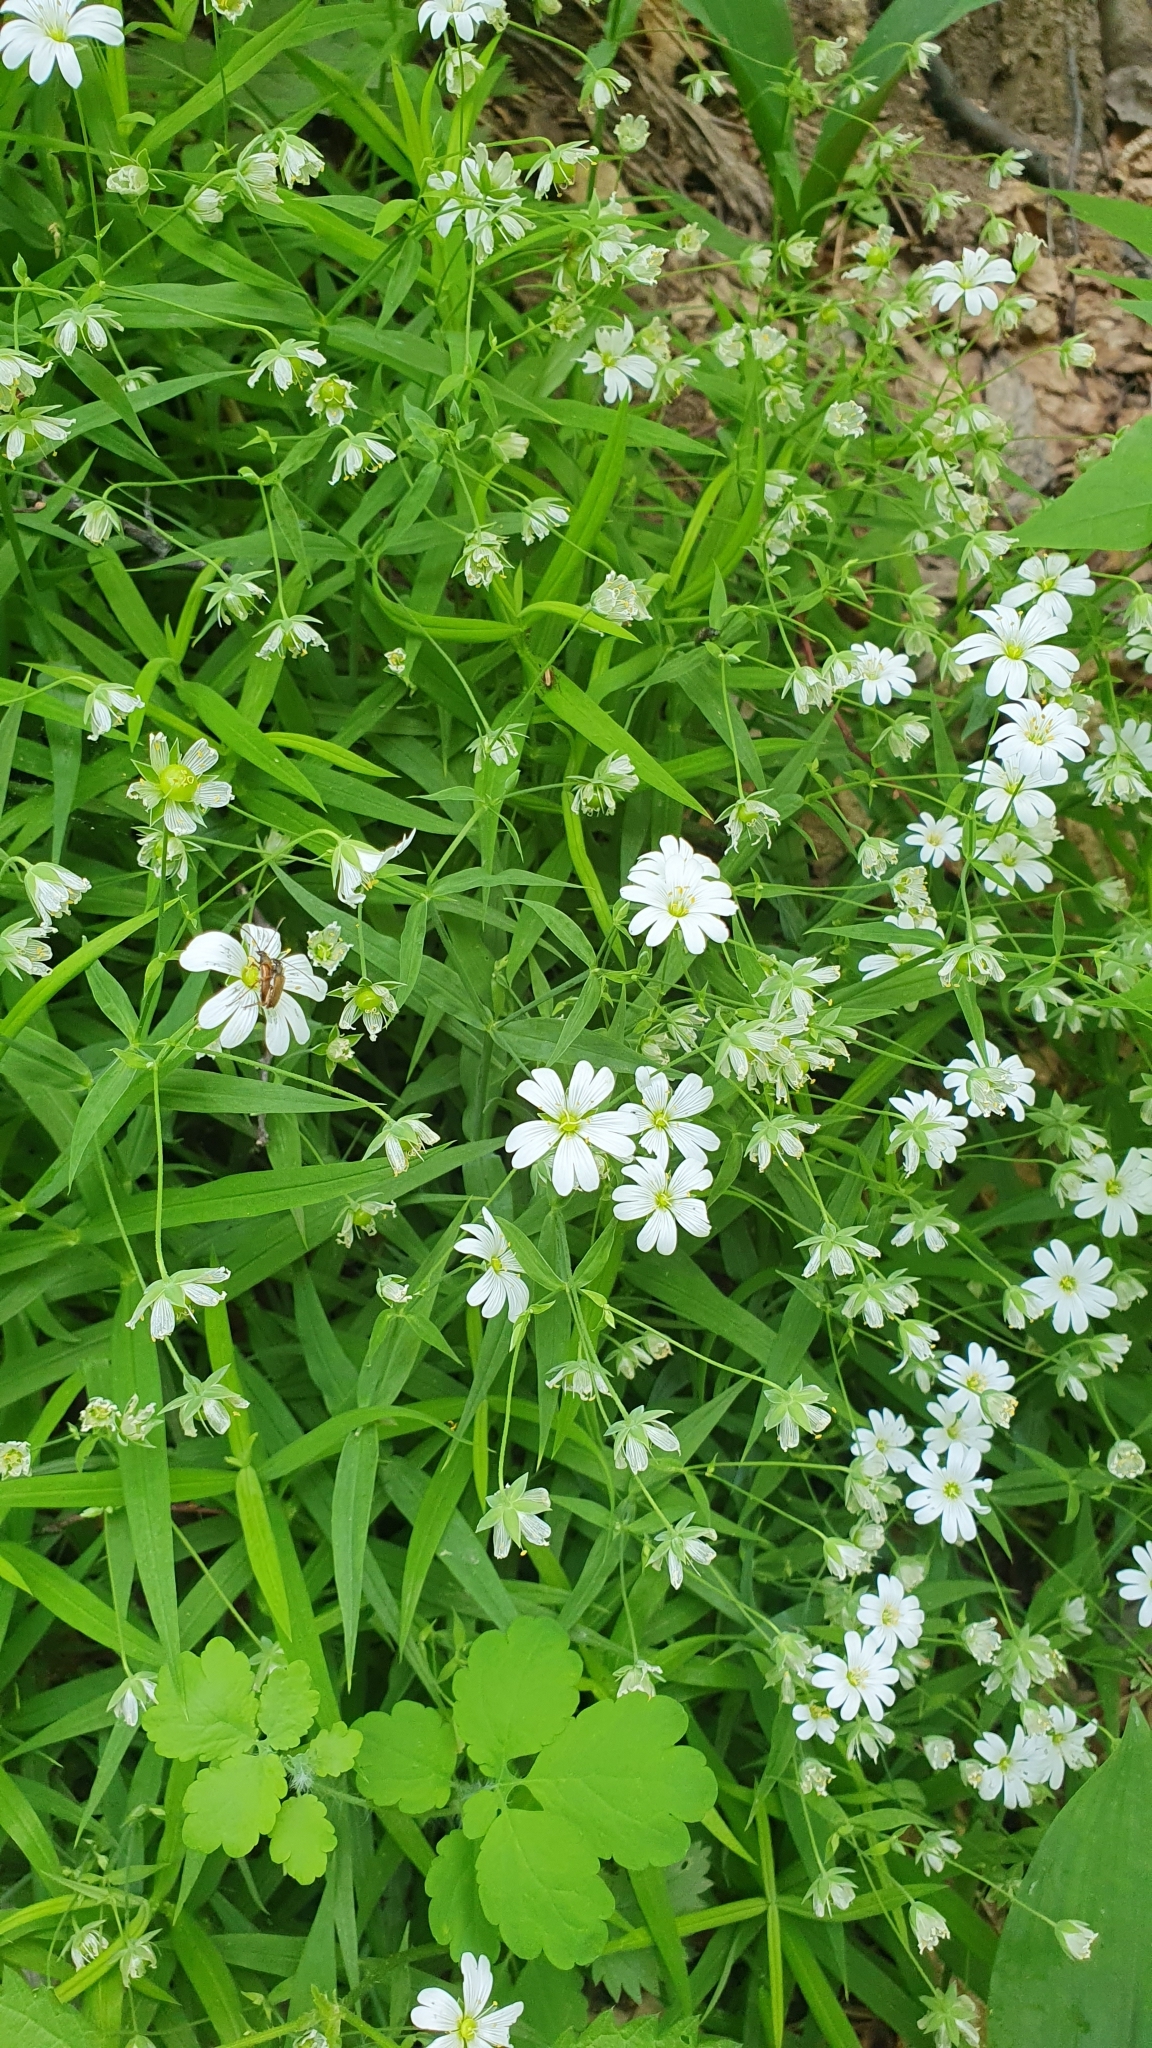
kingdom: Plantae
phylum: Tracheophyta
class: Magnoliopsida
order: Caryophyllales
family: Caryophyllaceae
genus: Rabelera
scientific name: Rabelera holostea
